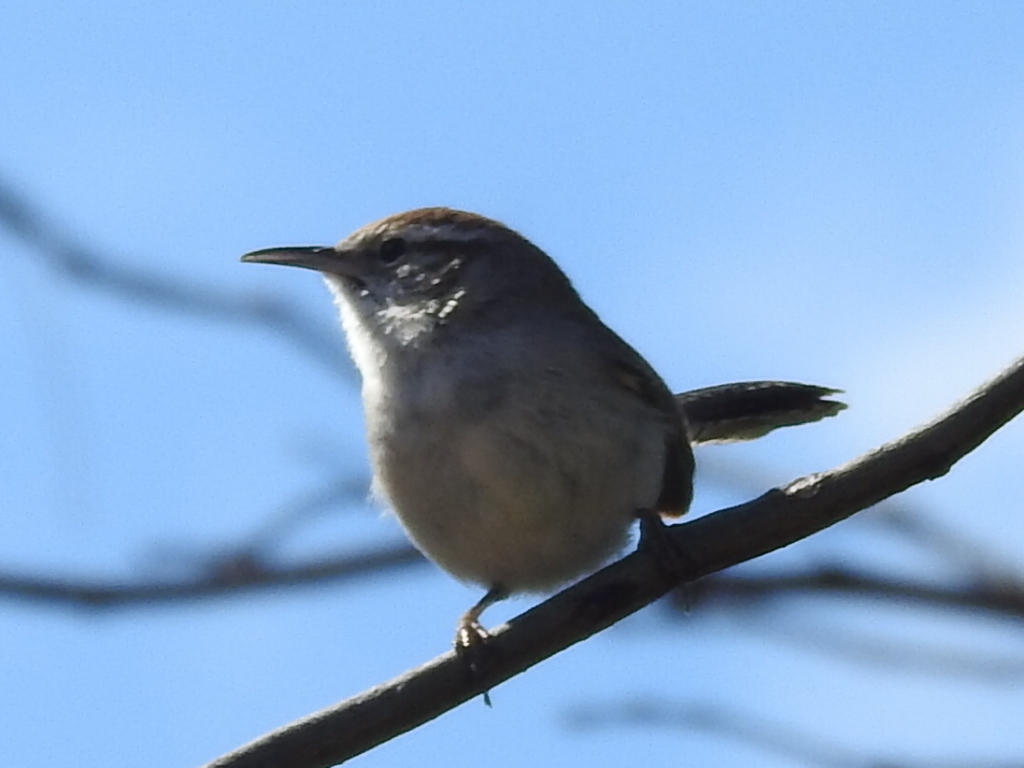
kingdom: Animalia
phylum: Chordata
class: Aves
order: Passeriformes
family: Troglodytidae
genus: Thryomanes
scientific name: Thryomanes bewickii
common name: Bewick's wren
